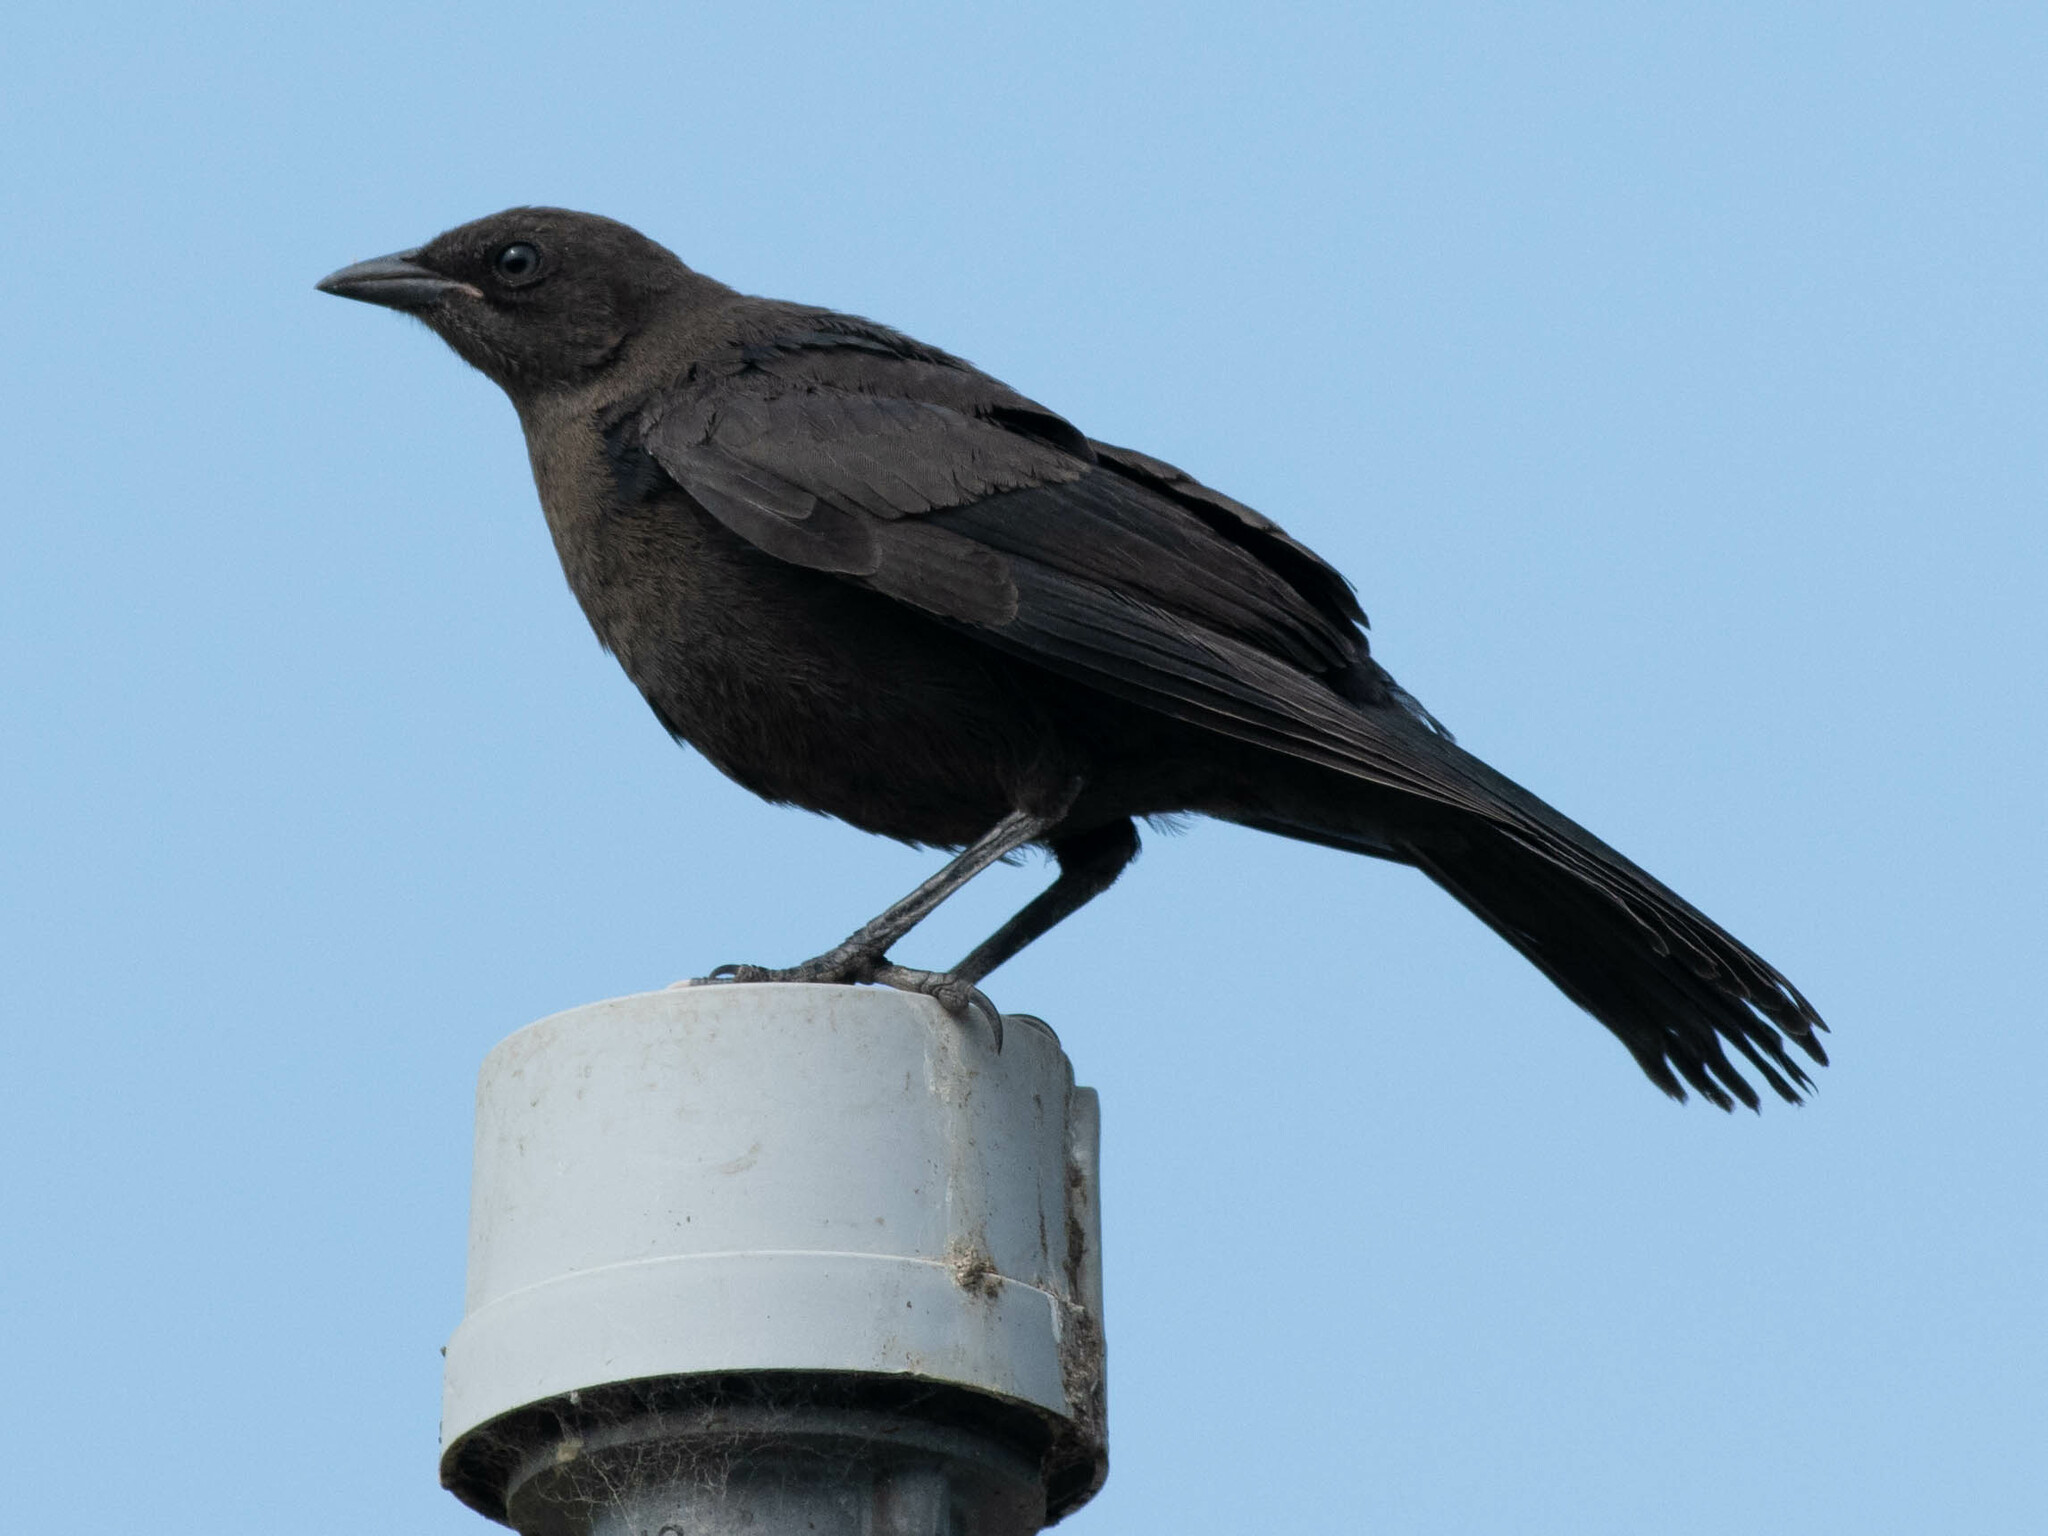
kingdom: Animalia
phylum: Chordata
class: Aves
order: Passeriformes
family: Icteridae
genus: Euphagus
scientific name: Euphagus cyanocephalus
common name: Brewer's blackbird
